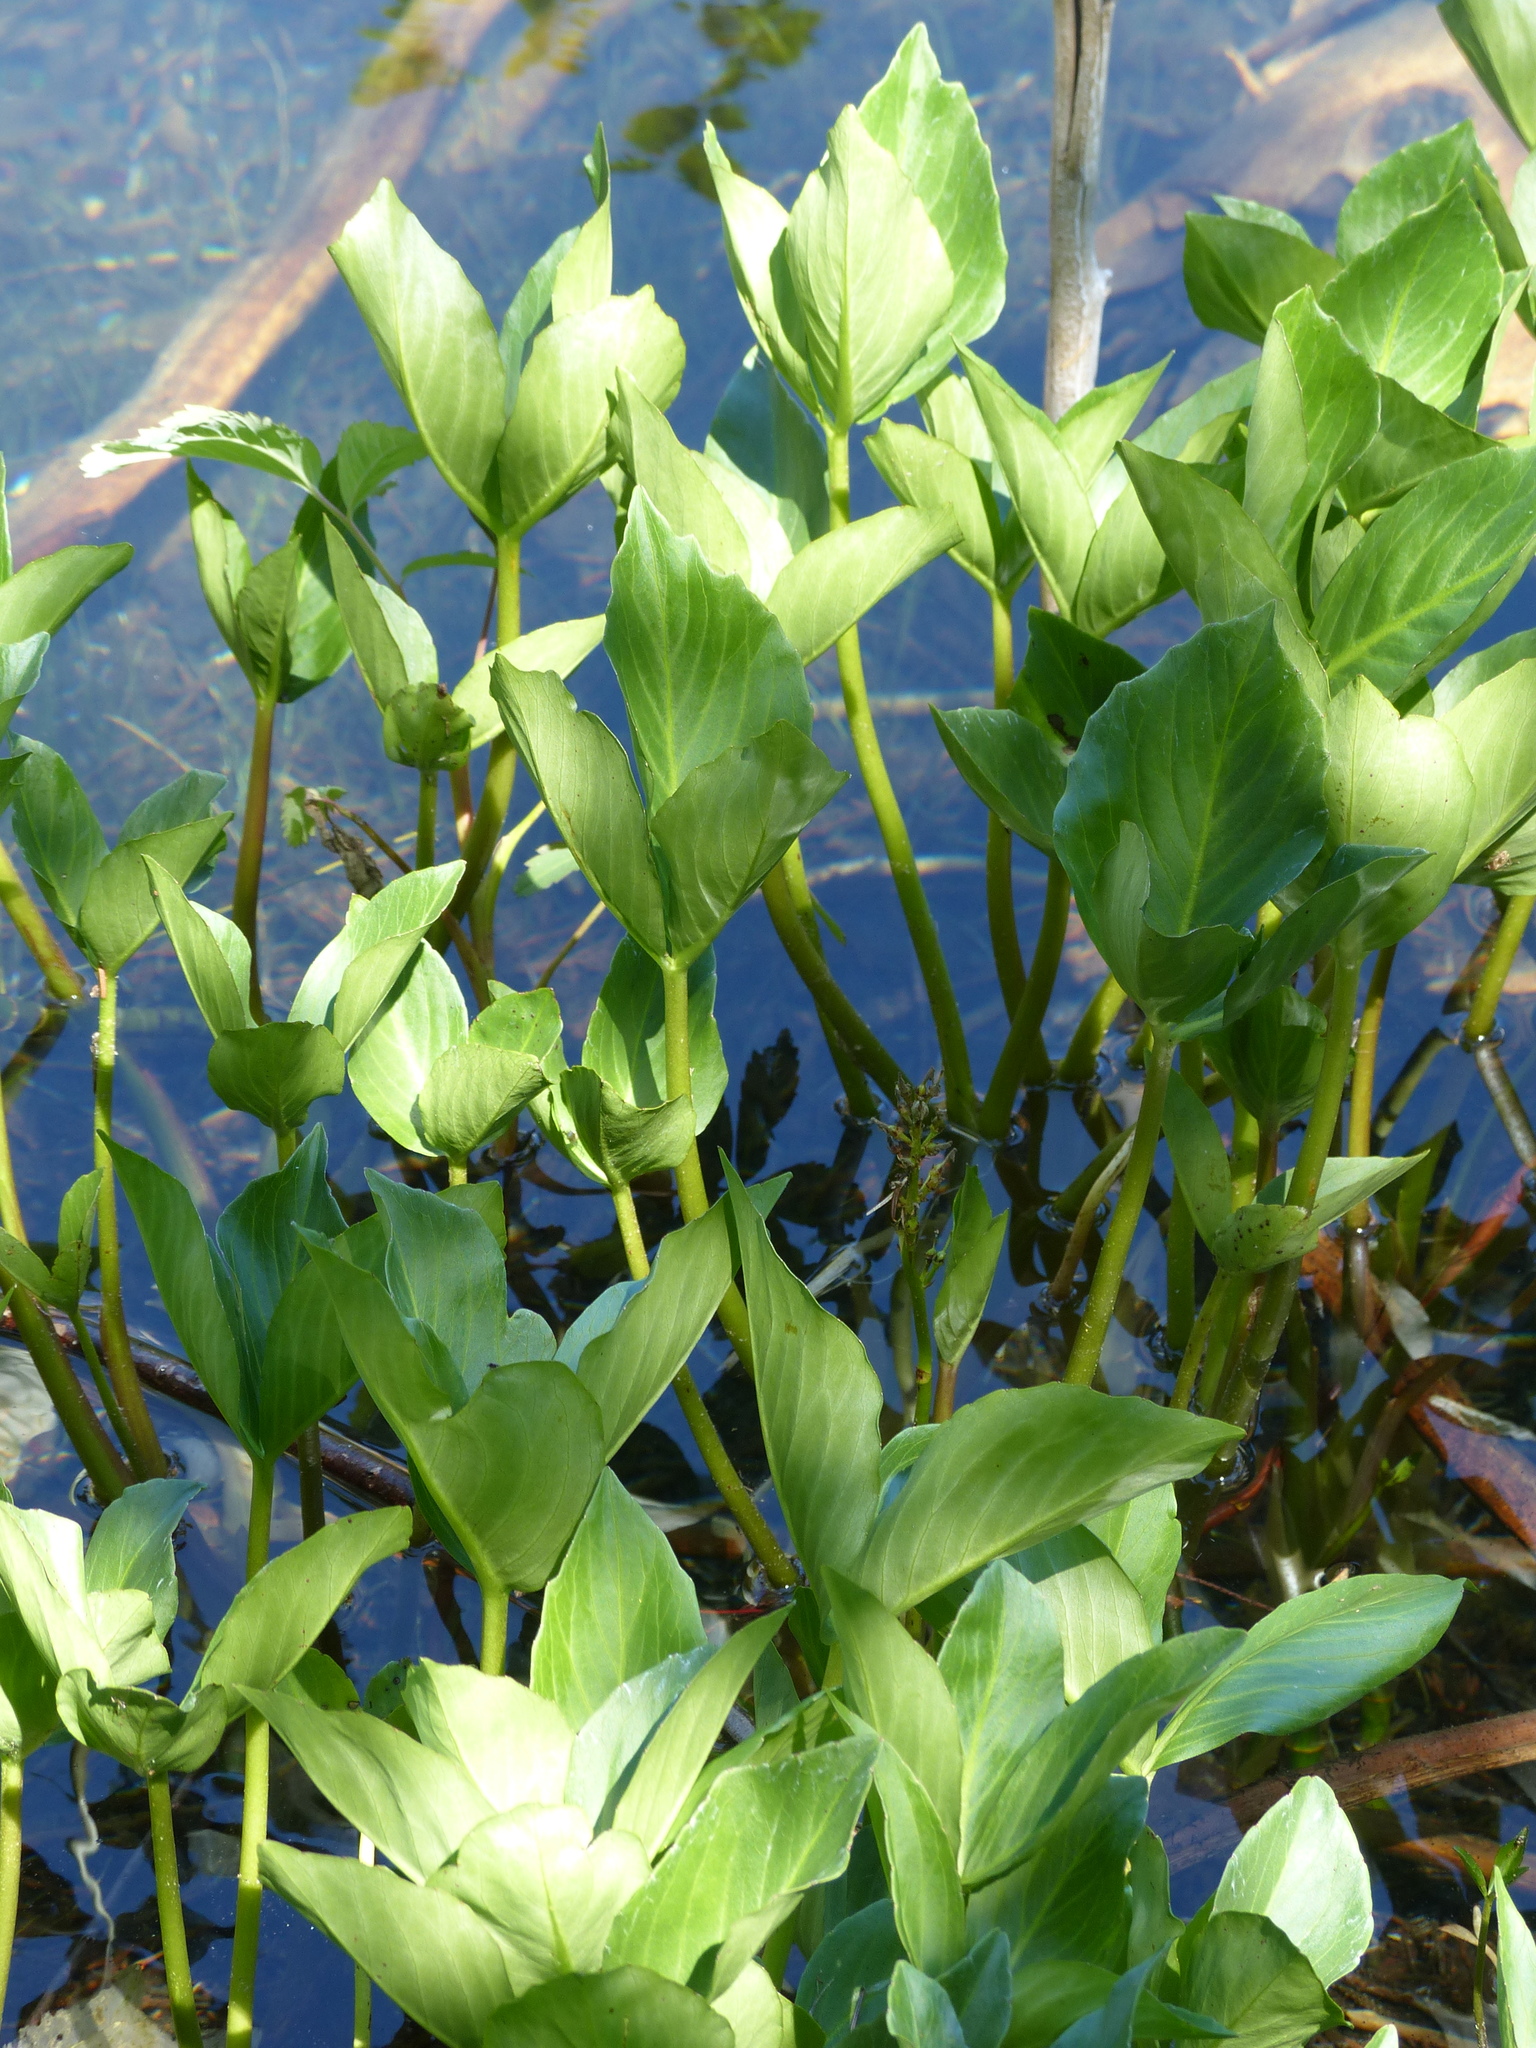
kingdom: Plantae
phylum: Tracheophyta
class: Magnoliopsida
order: Asterales
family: Menyanthaceae
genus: Menyanthes
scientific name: Menyanthes trifoliata
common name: Bogbean
